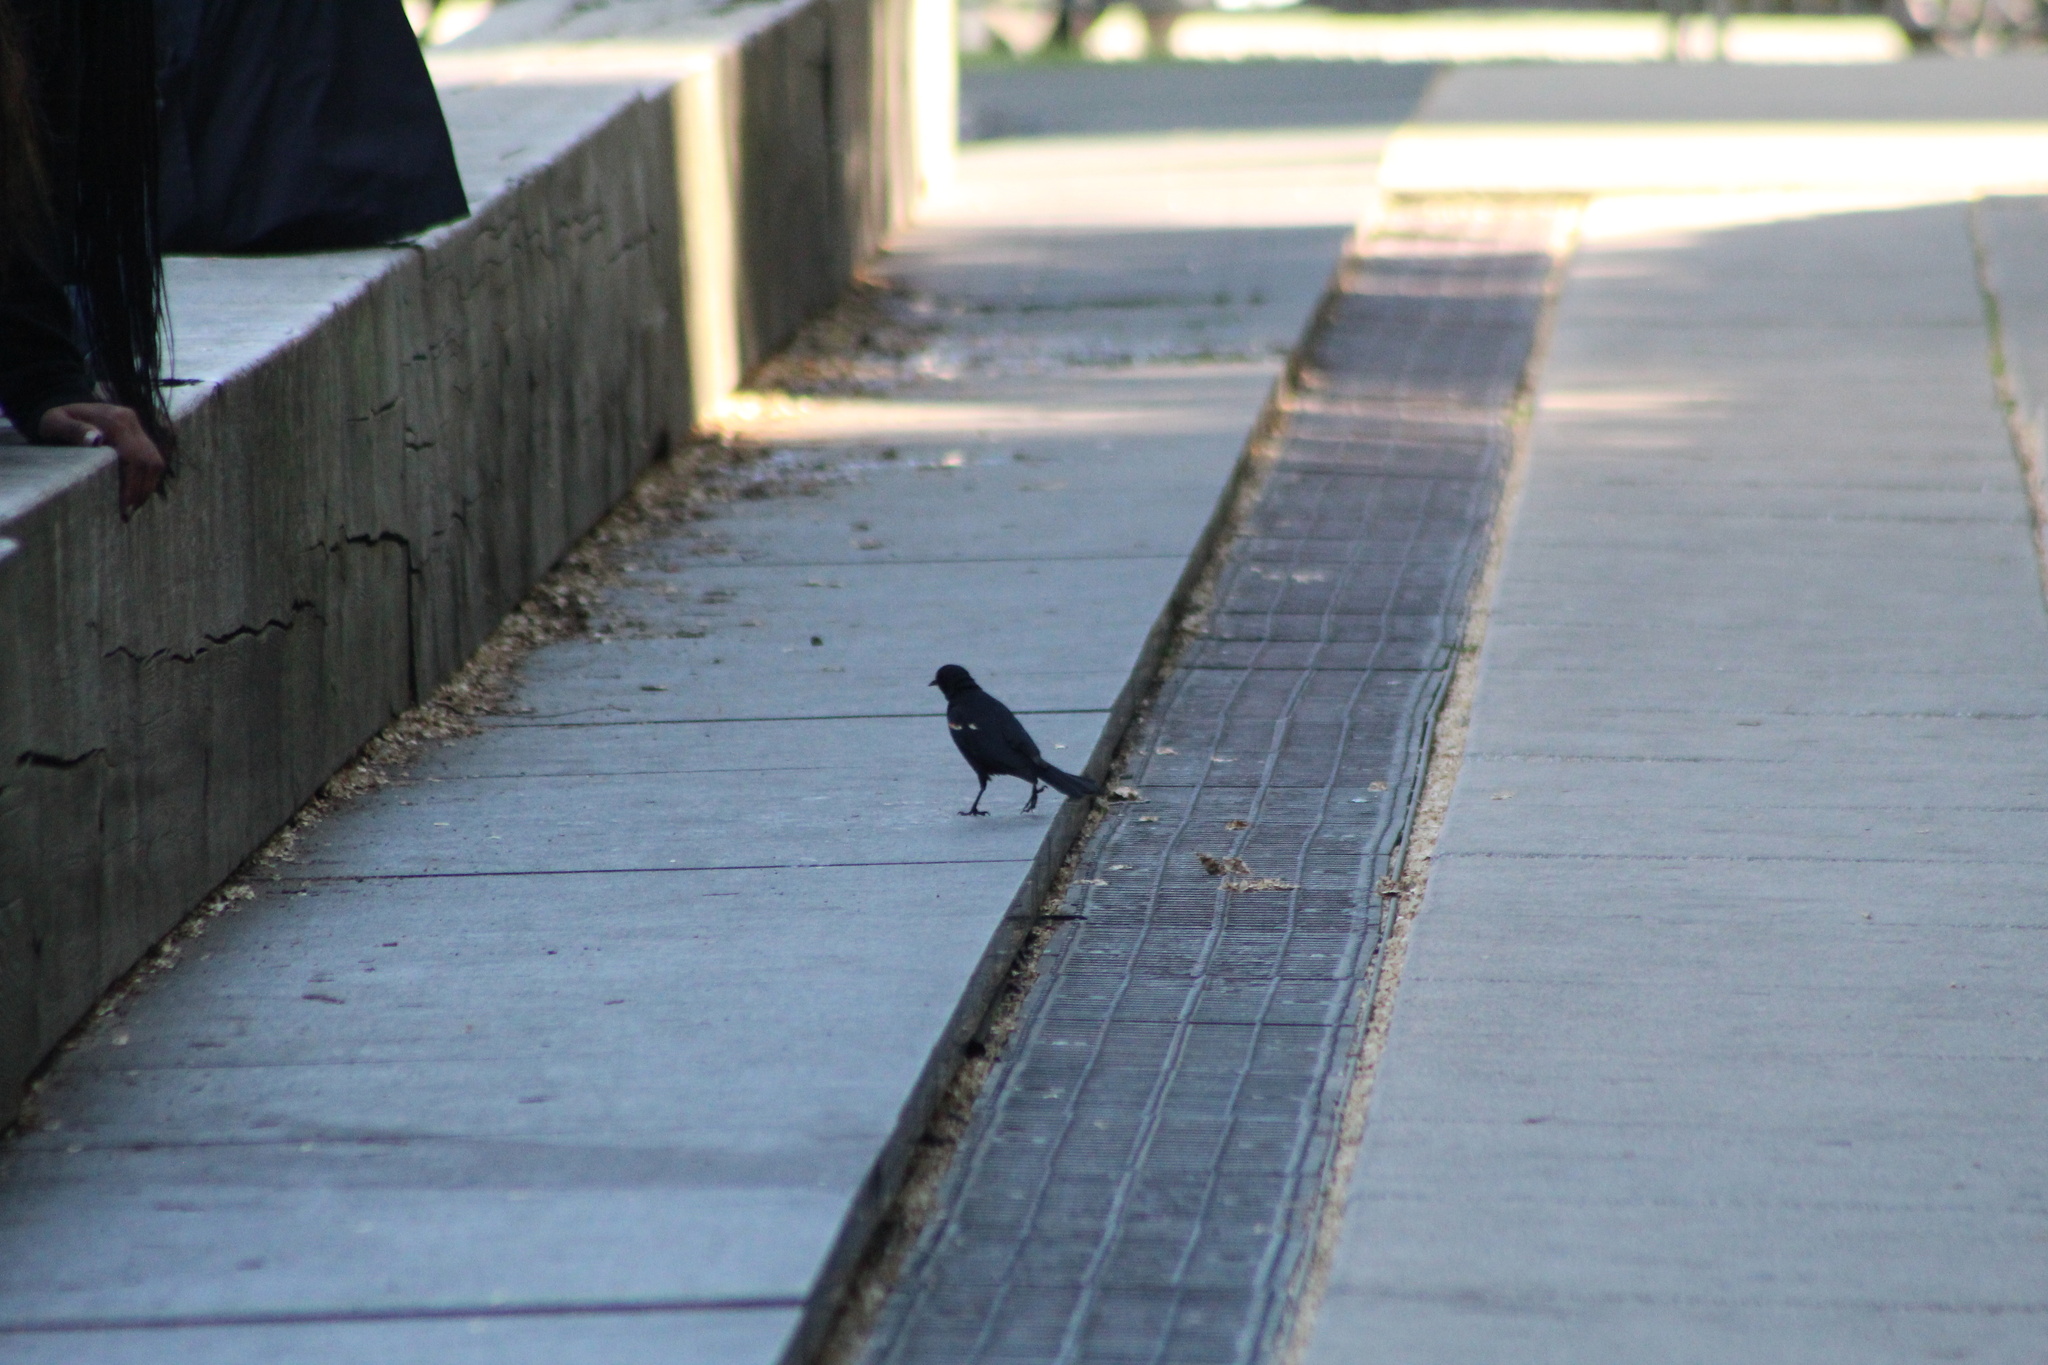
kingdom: Animalia
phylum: Chordata
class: Aves
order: Passeriformes
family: Icteridae
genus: Agelaius
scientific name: Agelaius phoeniceus
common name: Red-winged blackbird
